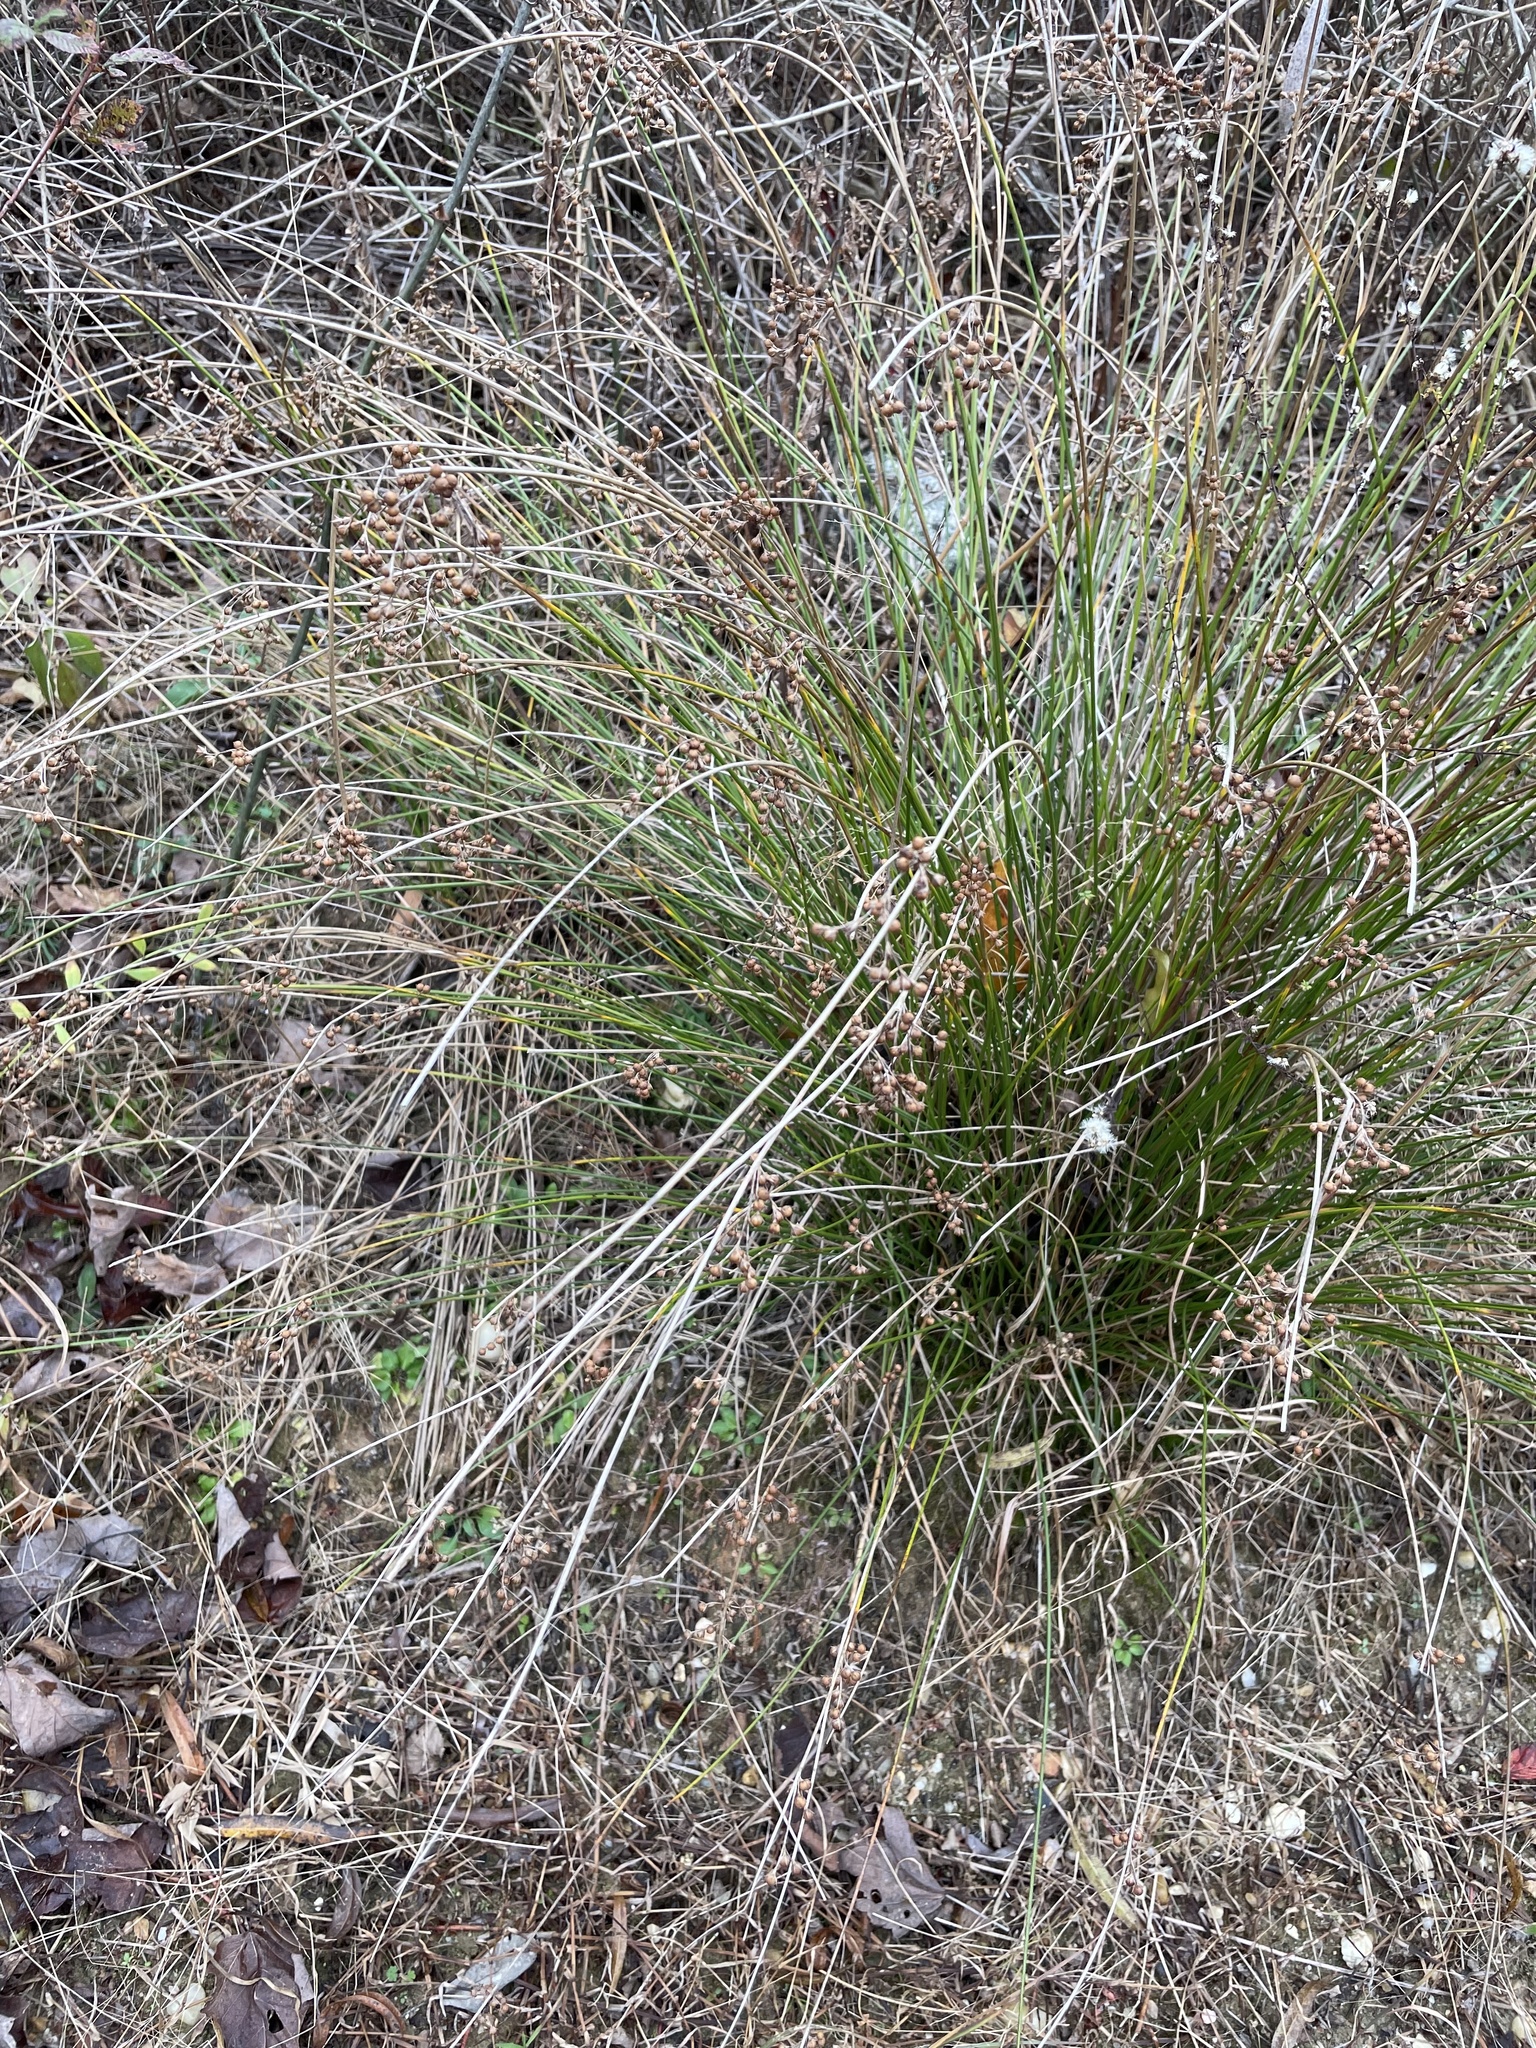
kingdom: Plantae
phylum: Tracheophyta
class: Liliopsida
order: Poales
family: Juncaceae
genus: Juncus
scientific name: Juncus coriaceus
